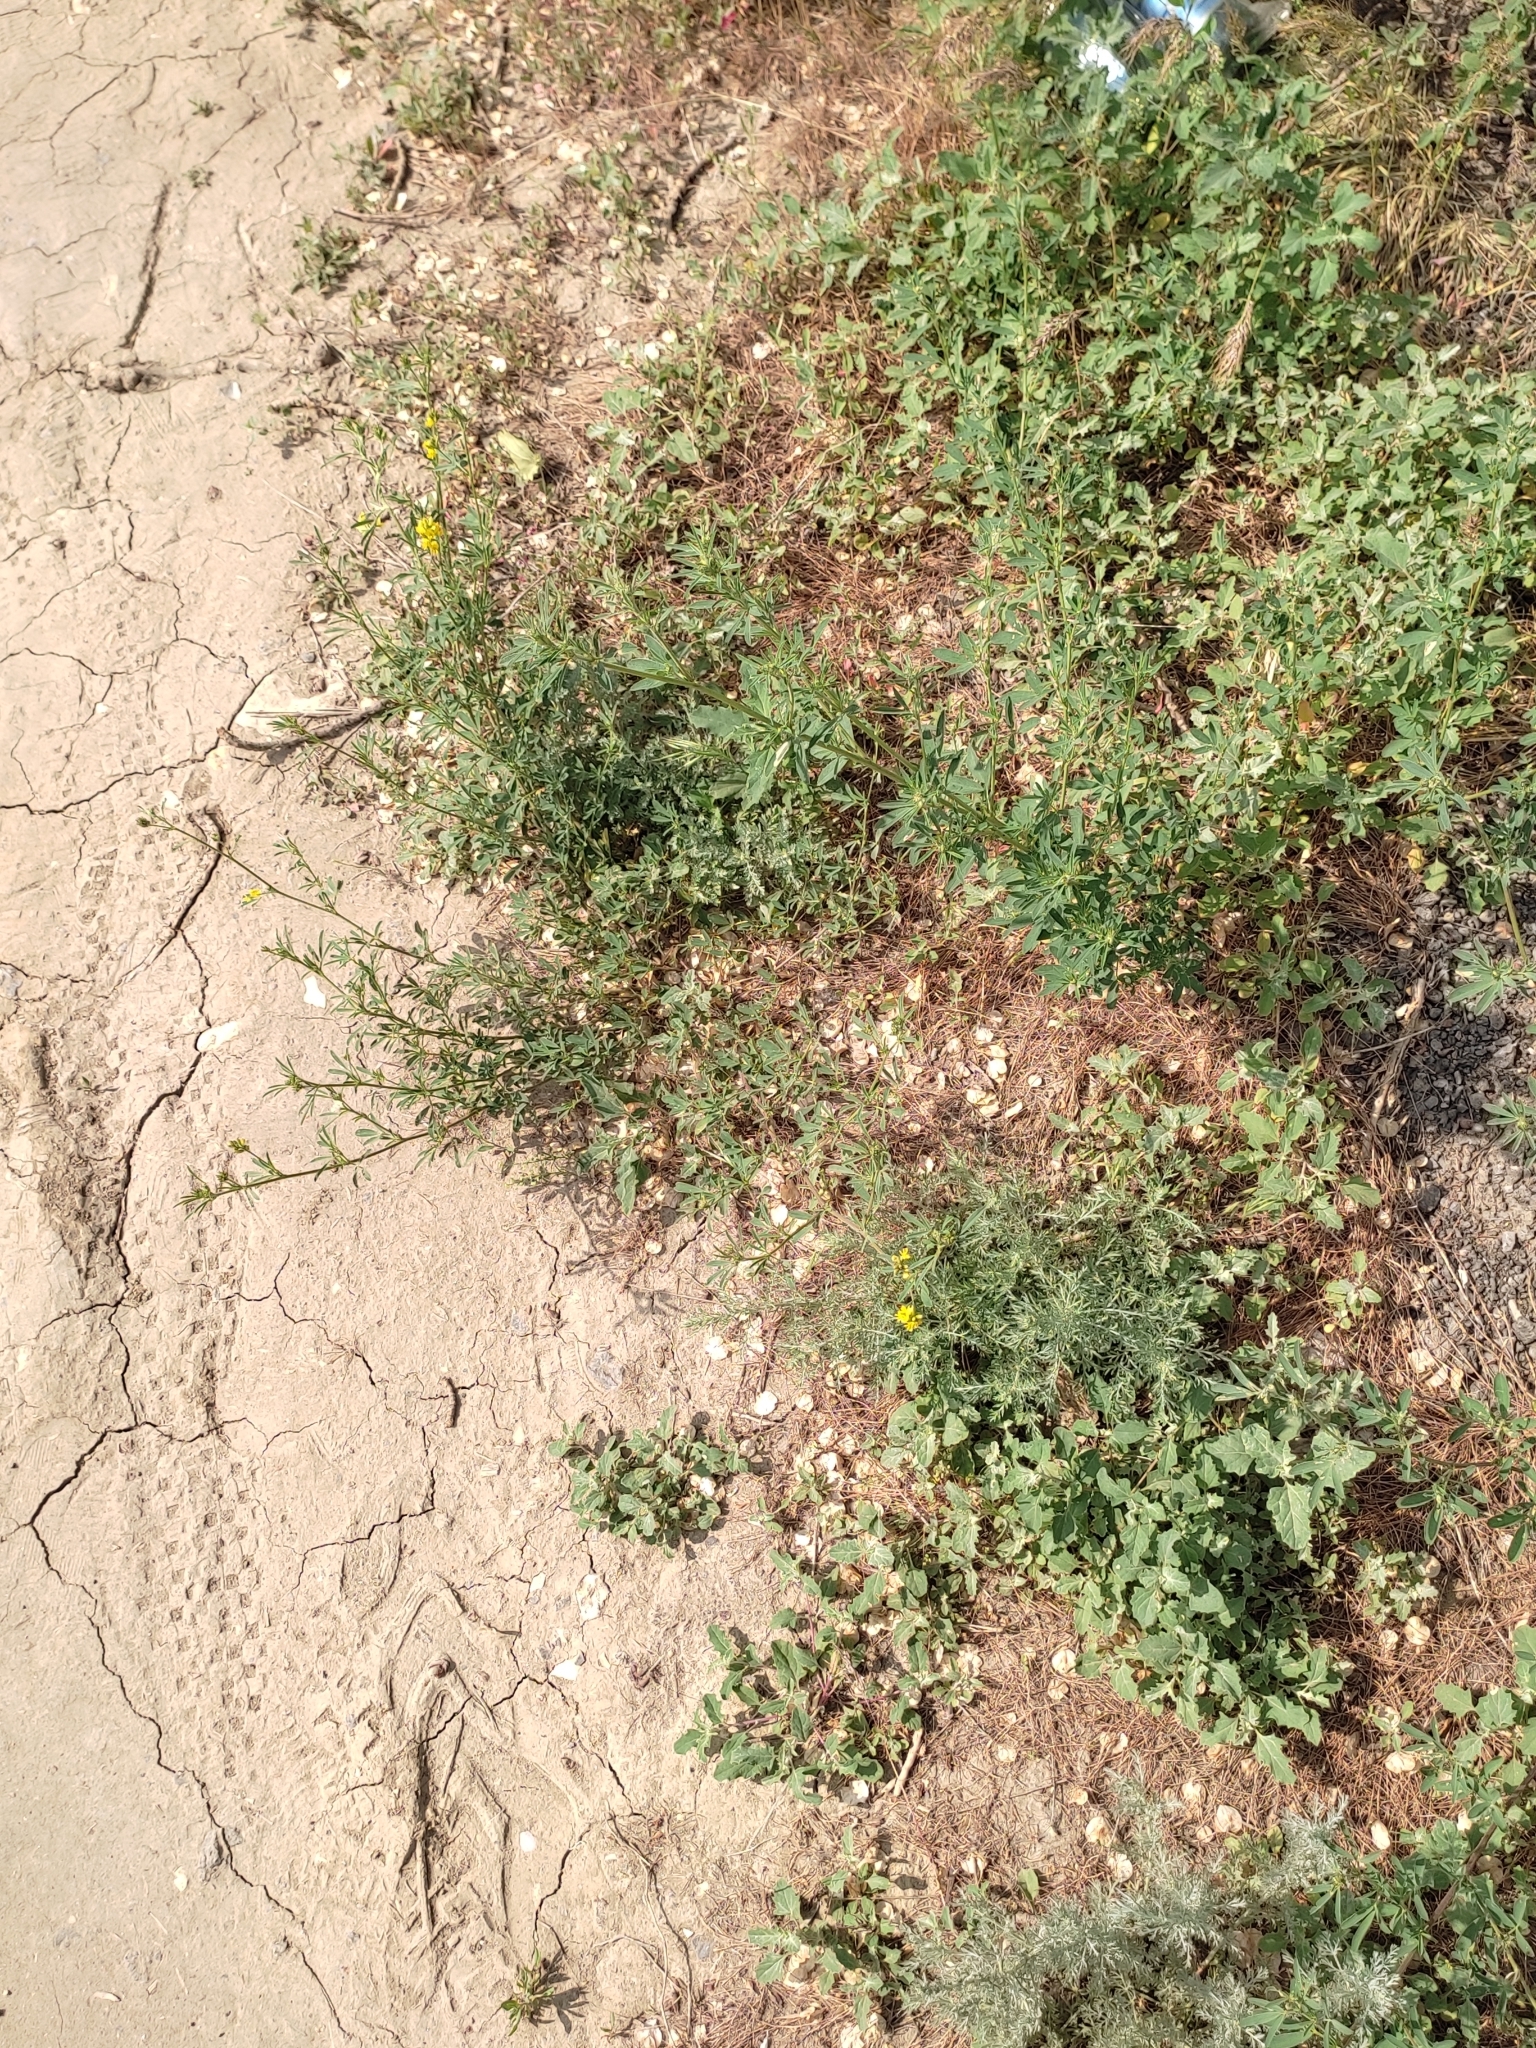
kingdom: Plantae
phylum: Tracheophyta
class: Magnoliopsida
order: Fabales
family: Fabaceae
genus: Medicago
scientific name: Medicago falcata
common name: Sickle medick
